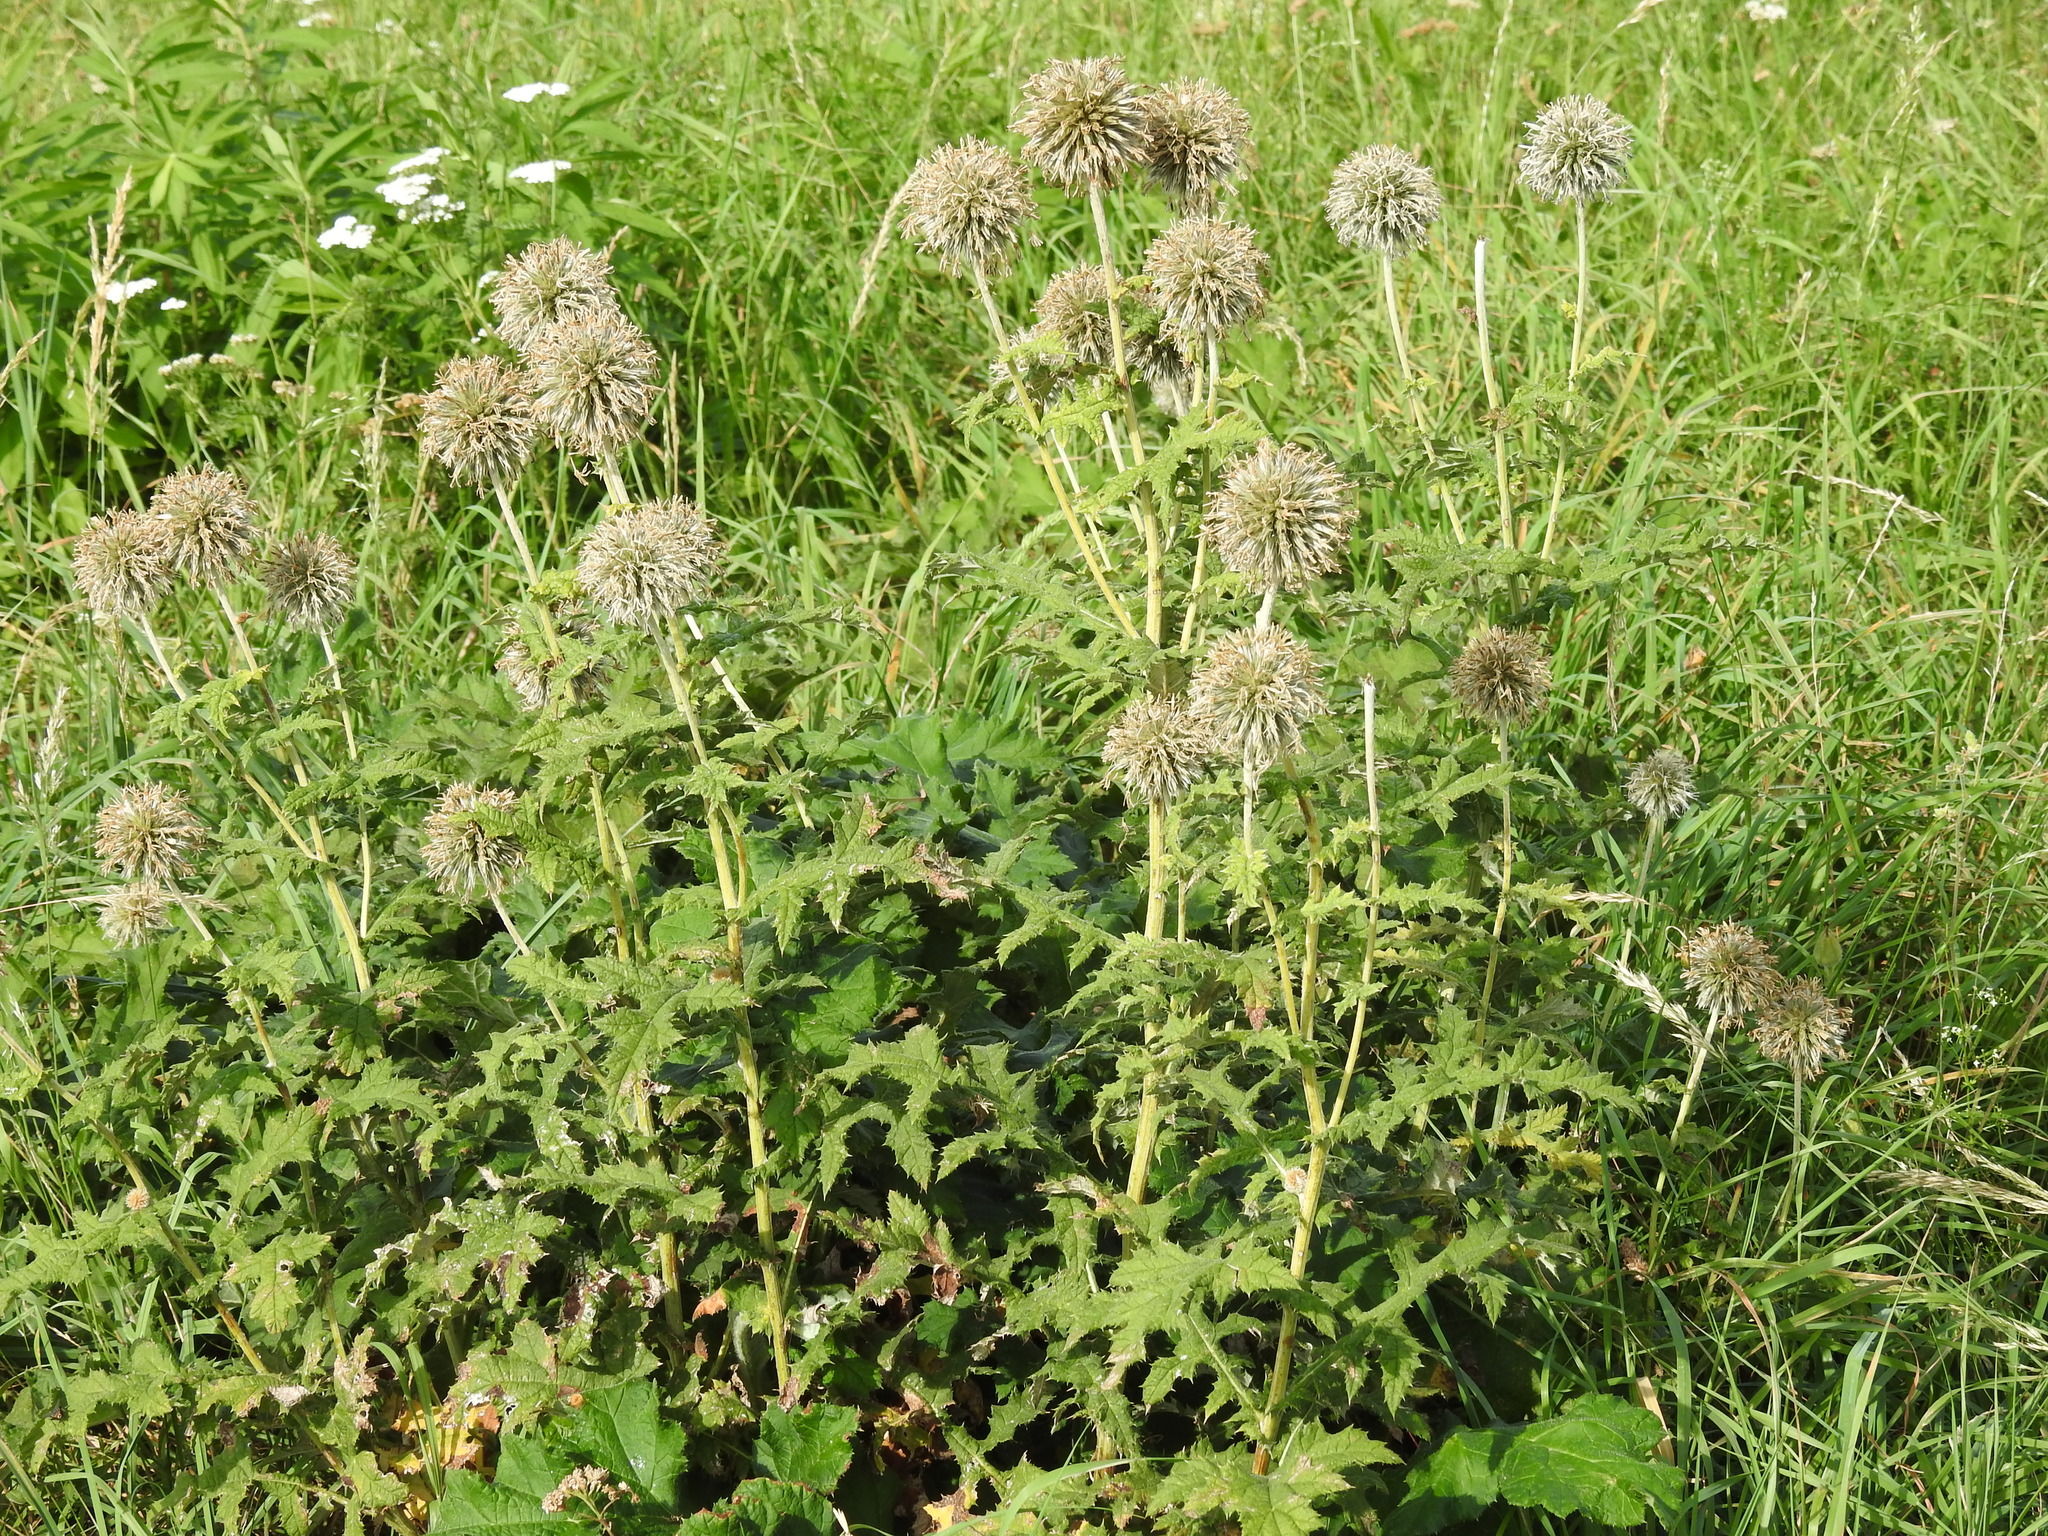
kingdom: Plantae
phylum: Tracheophyta
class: Magnoliopsida
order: Asterales
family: Asteraceae
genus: Echinops
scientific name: Echinops sphaerocephalus
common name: Glandular globe-thistle
